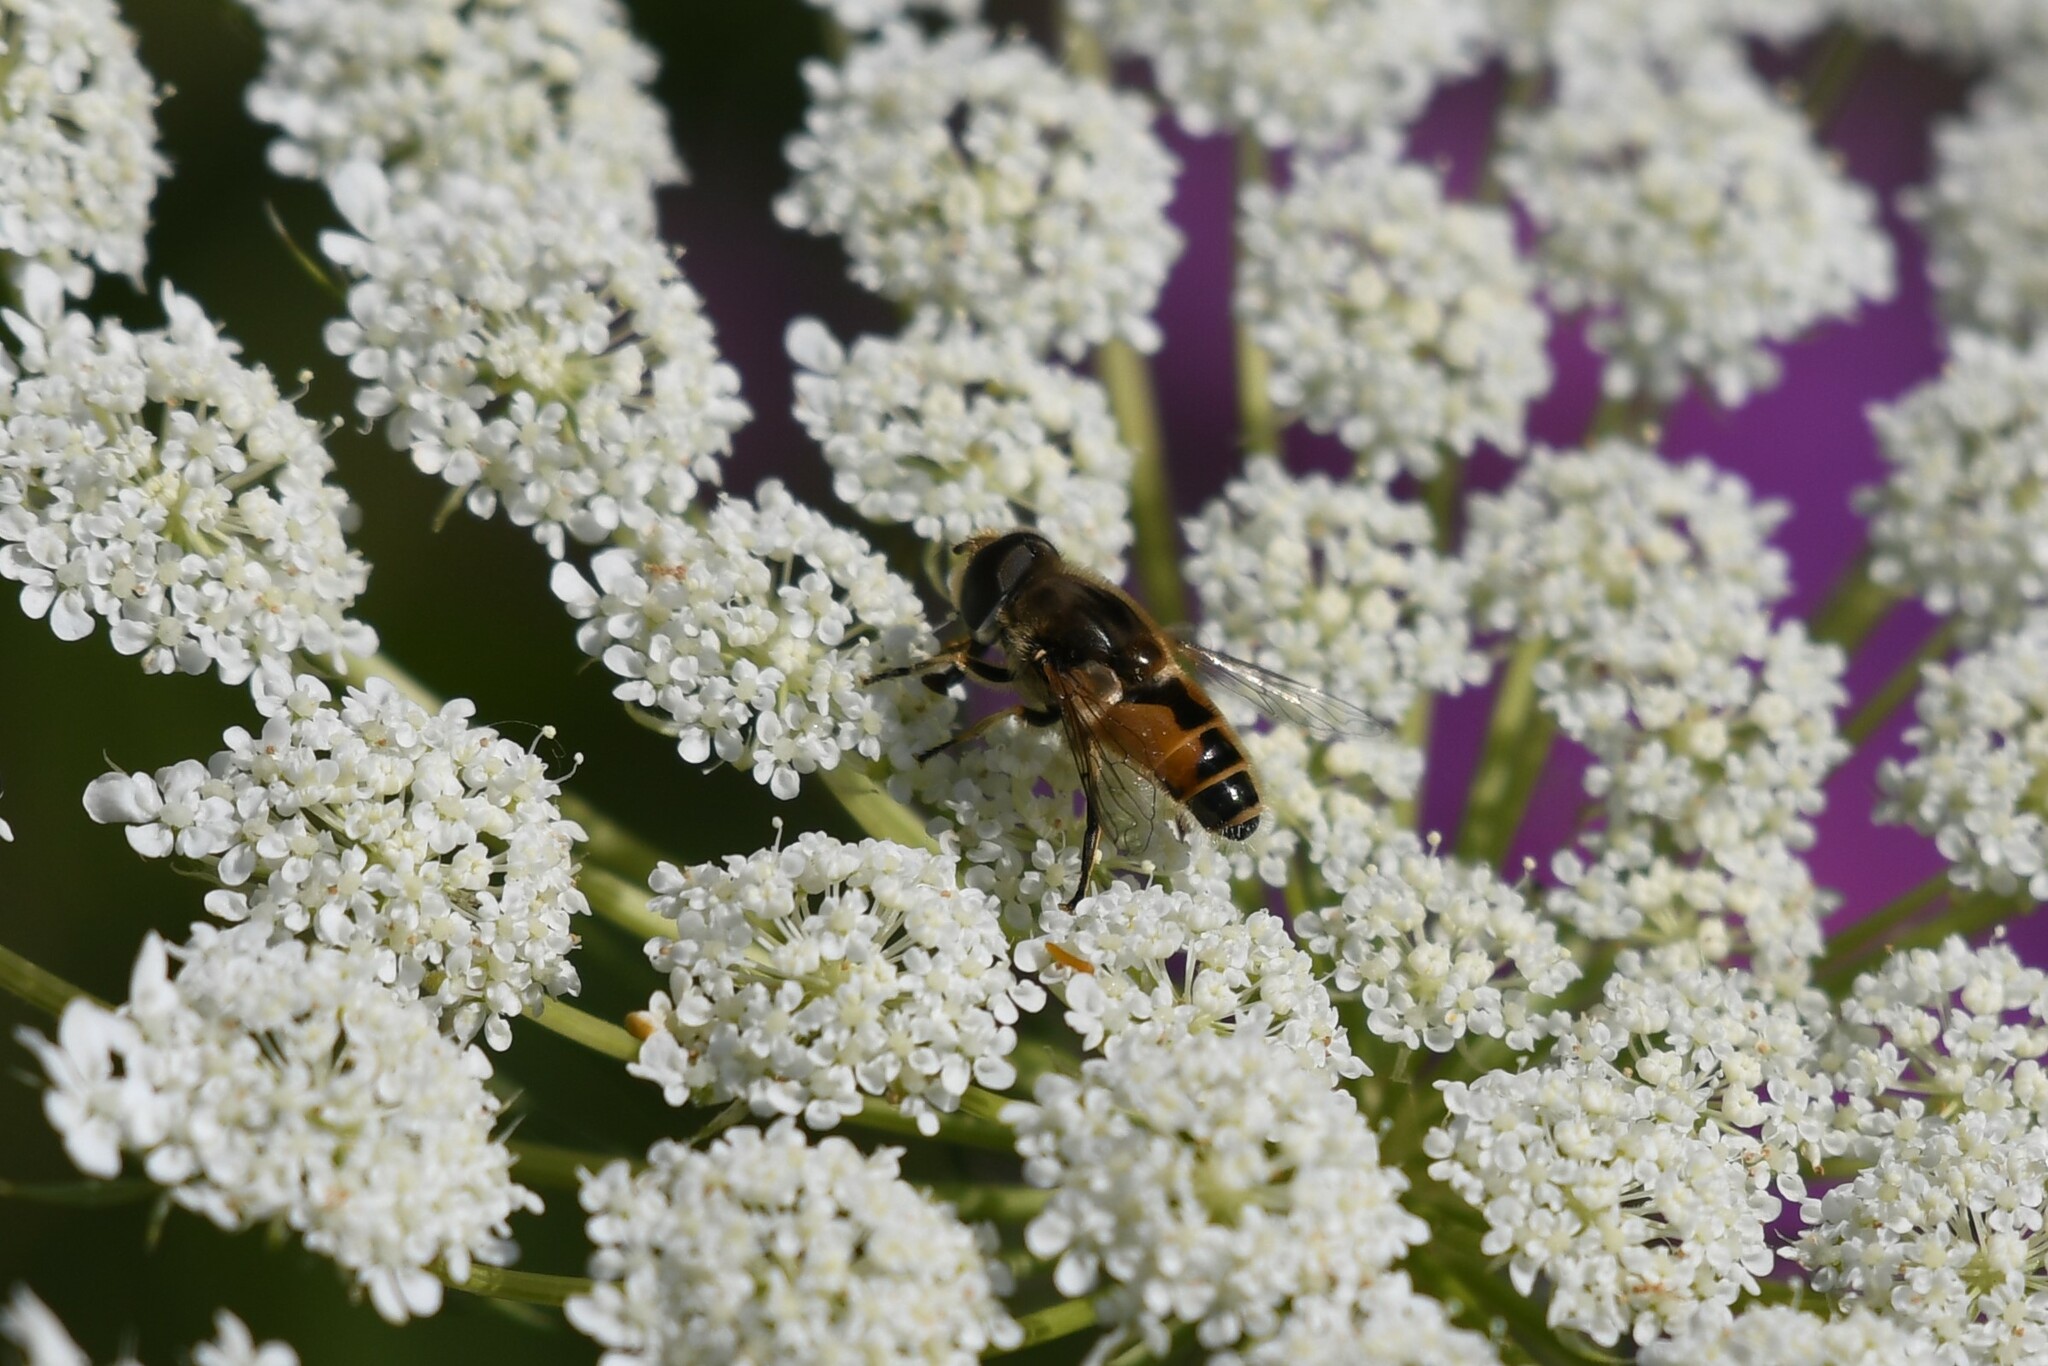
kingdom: Animalia
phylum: Arthropoda
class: Insecta
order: Diptera
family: Syrphidae
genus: Eristalis
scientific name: Eristalis arbustorum
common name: Hover fly
